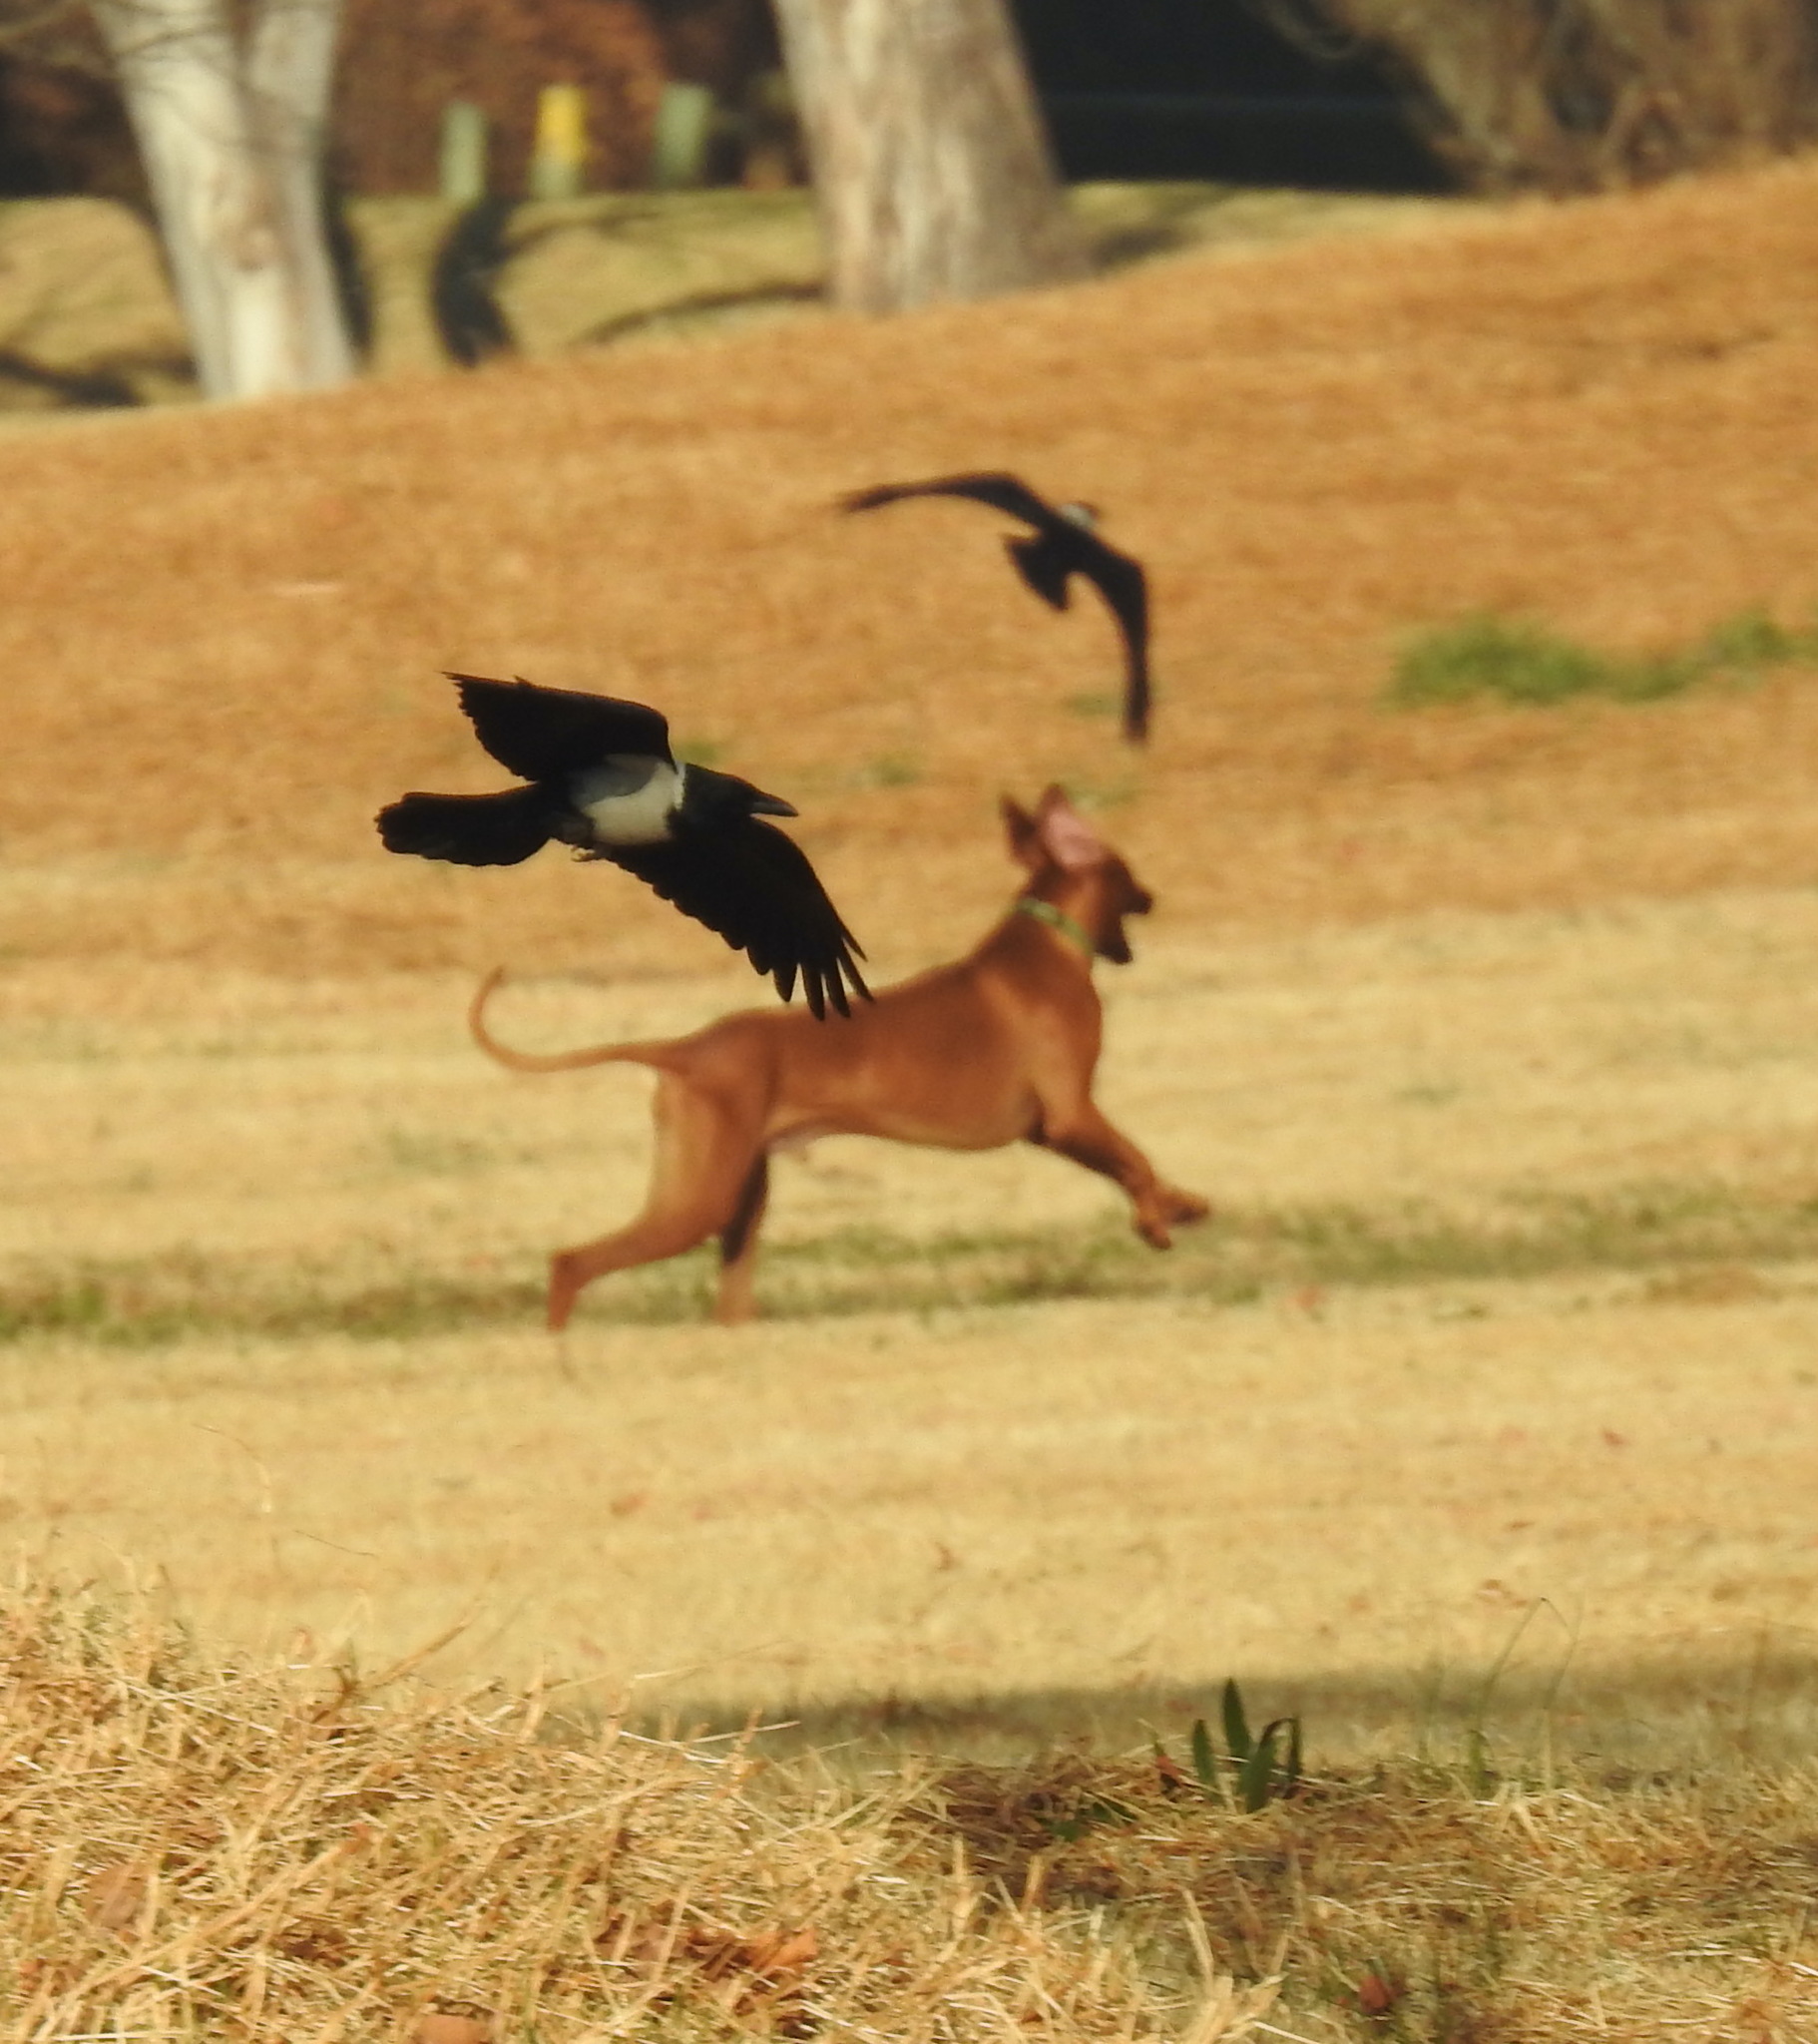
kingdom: Animalia
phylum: Chordata
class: Aves
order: Passeriformes
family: Corvidae
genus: Corvus
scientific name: Corvus albus
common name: Pied crow
